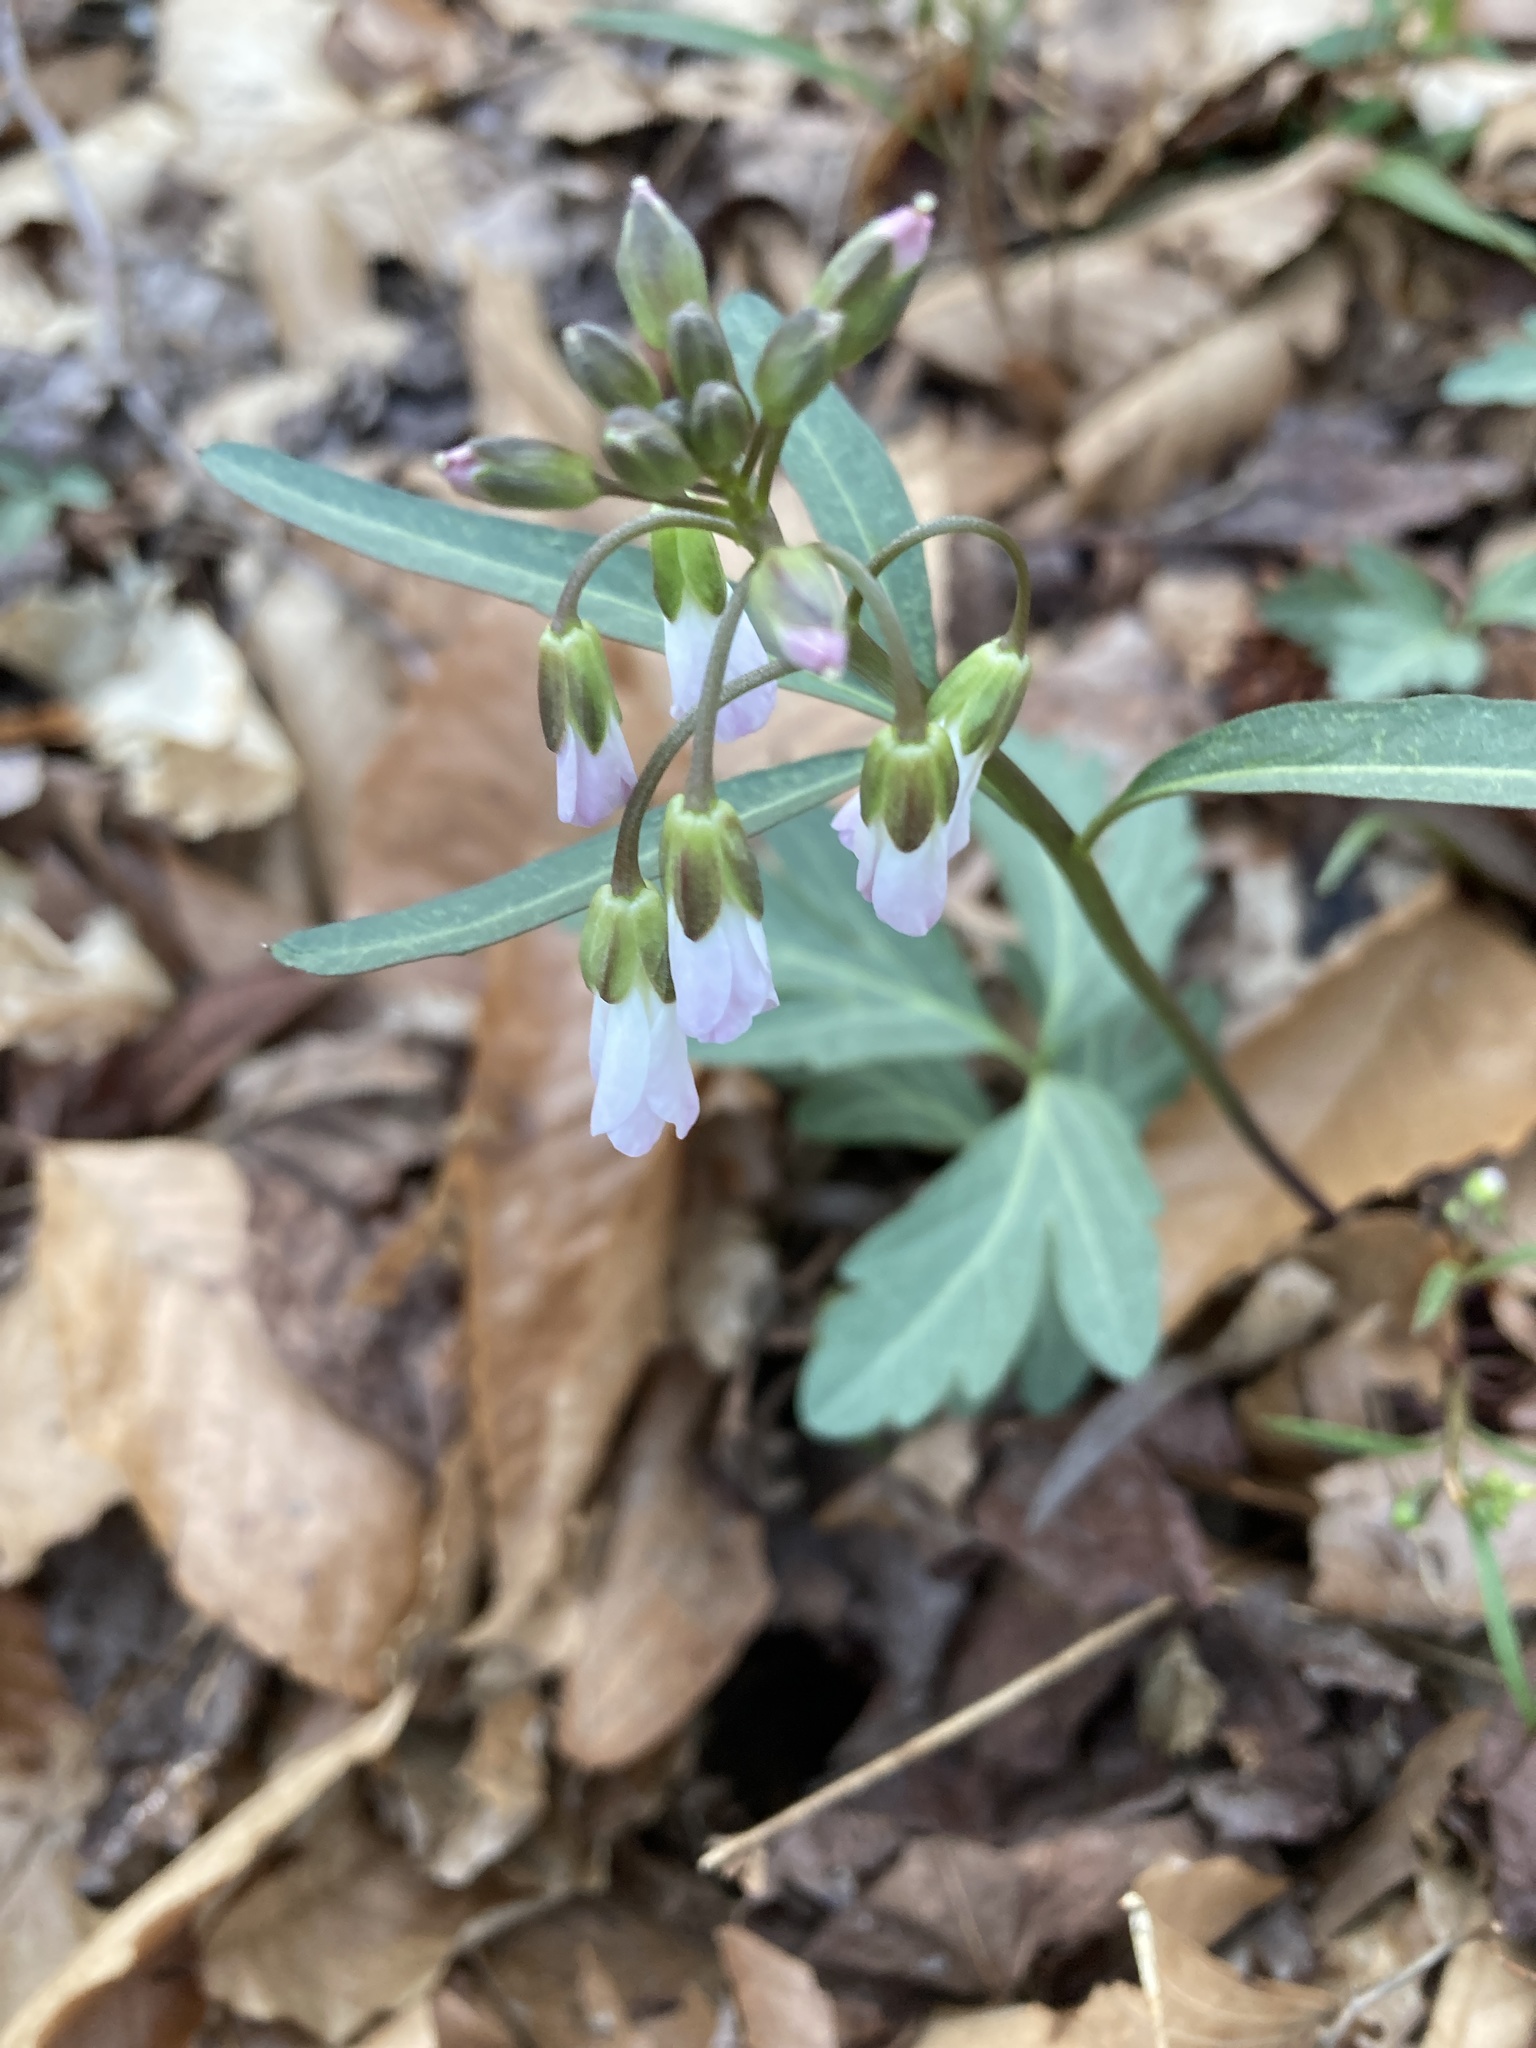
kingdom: Plantae
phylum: Tracheophyta
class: Magnoliopsida
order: Brassicales
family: Brassicaceae
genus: Cardamine
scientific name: Cardamine angustata
